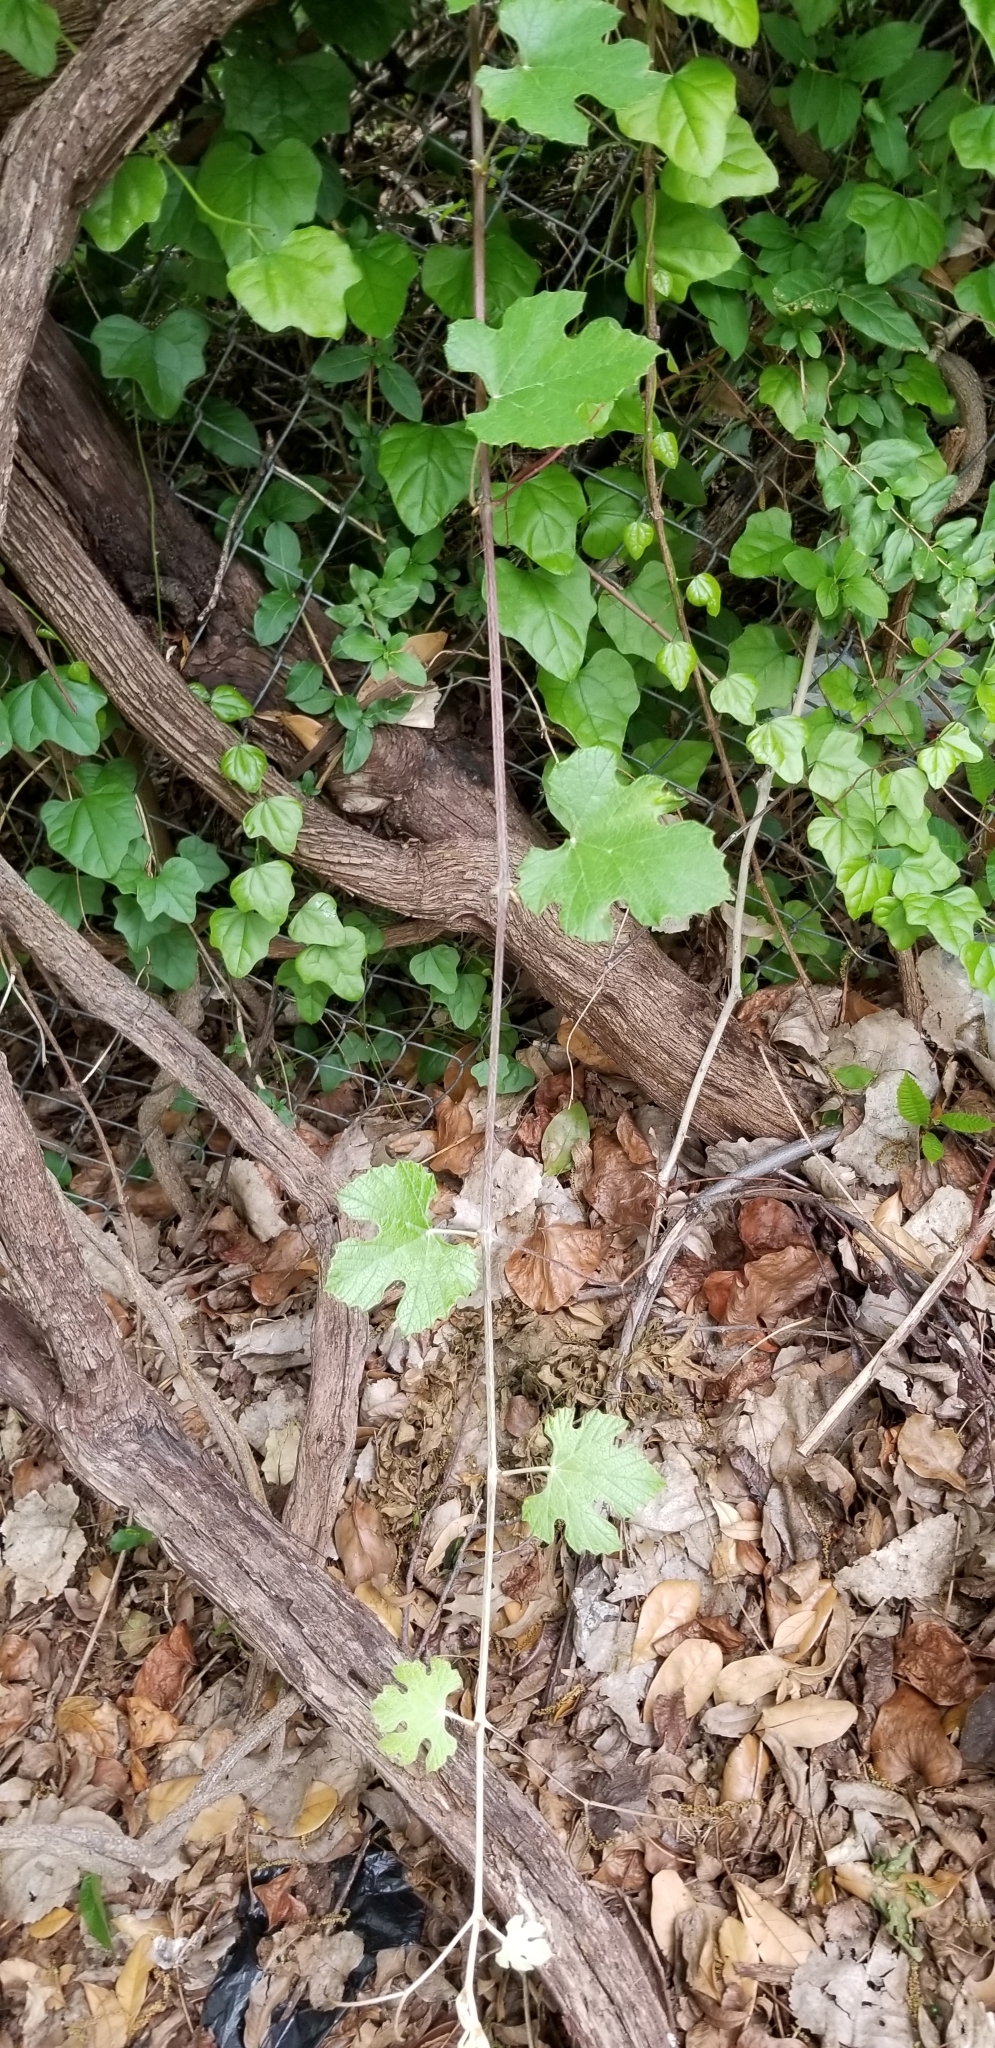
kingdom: Plantae
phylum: Tracheophyta
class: Magnoliopsida
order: Vitales
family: Vitaceae
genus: Vitis
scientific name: Vitis mustangensis
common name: Mustang grape
